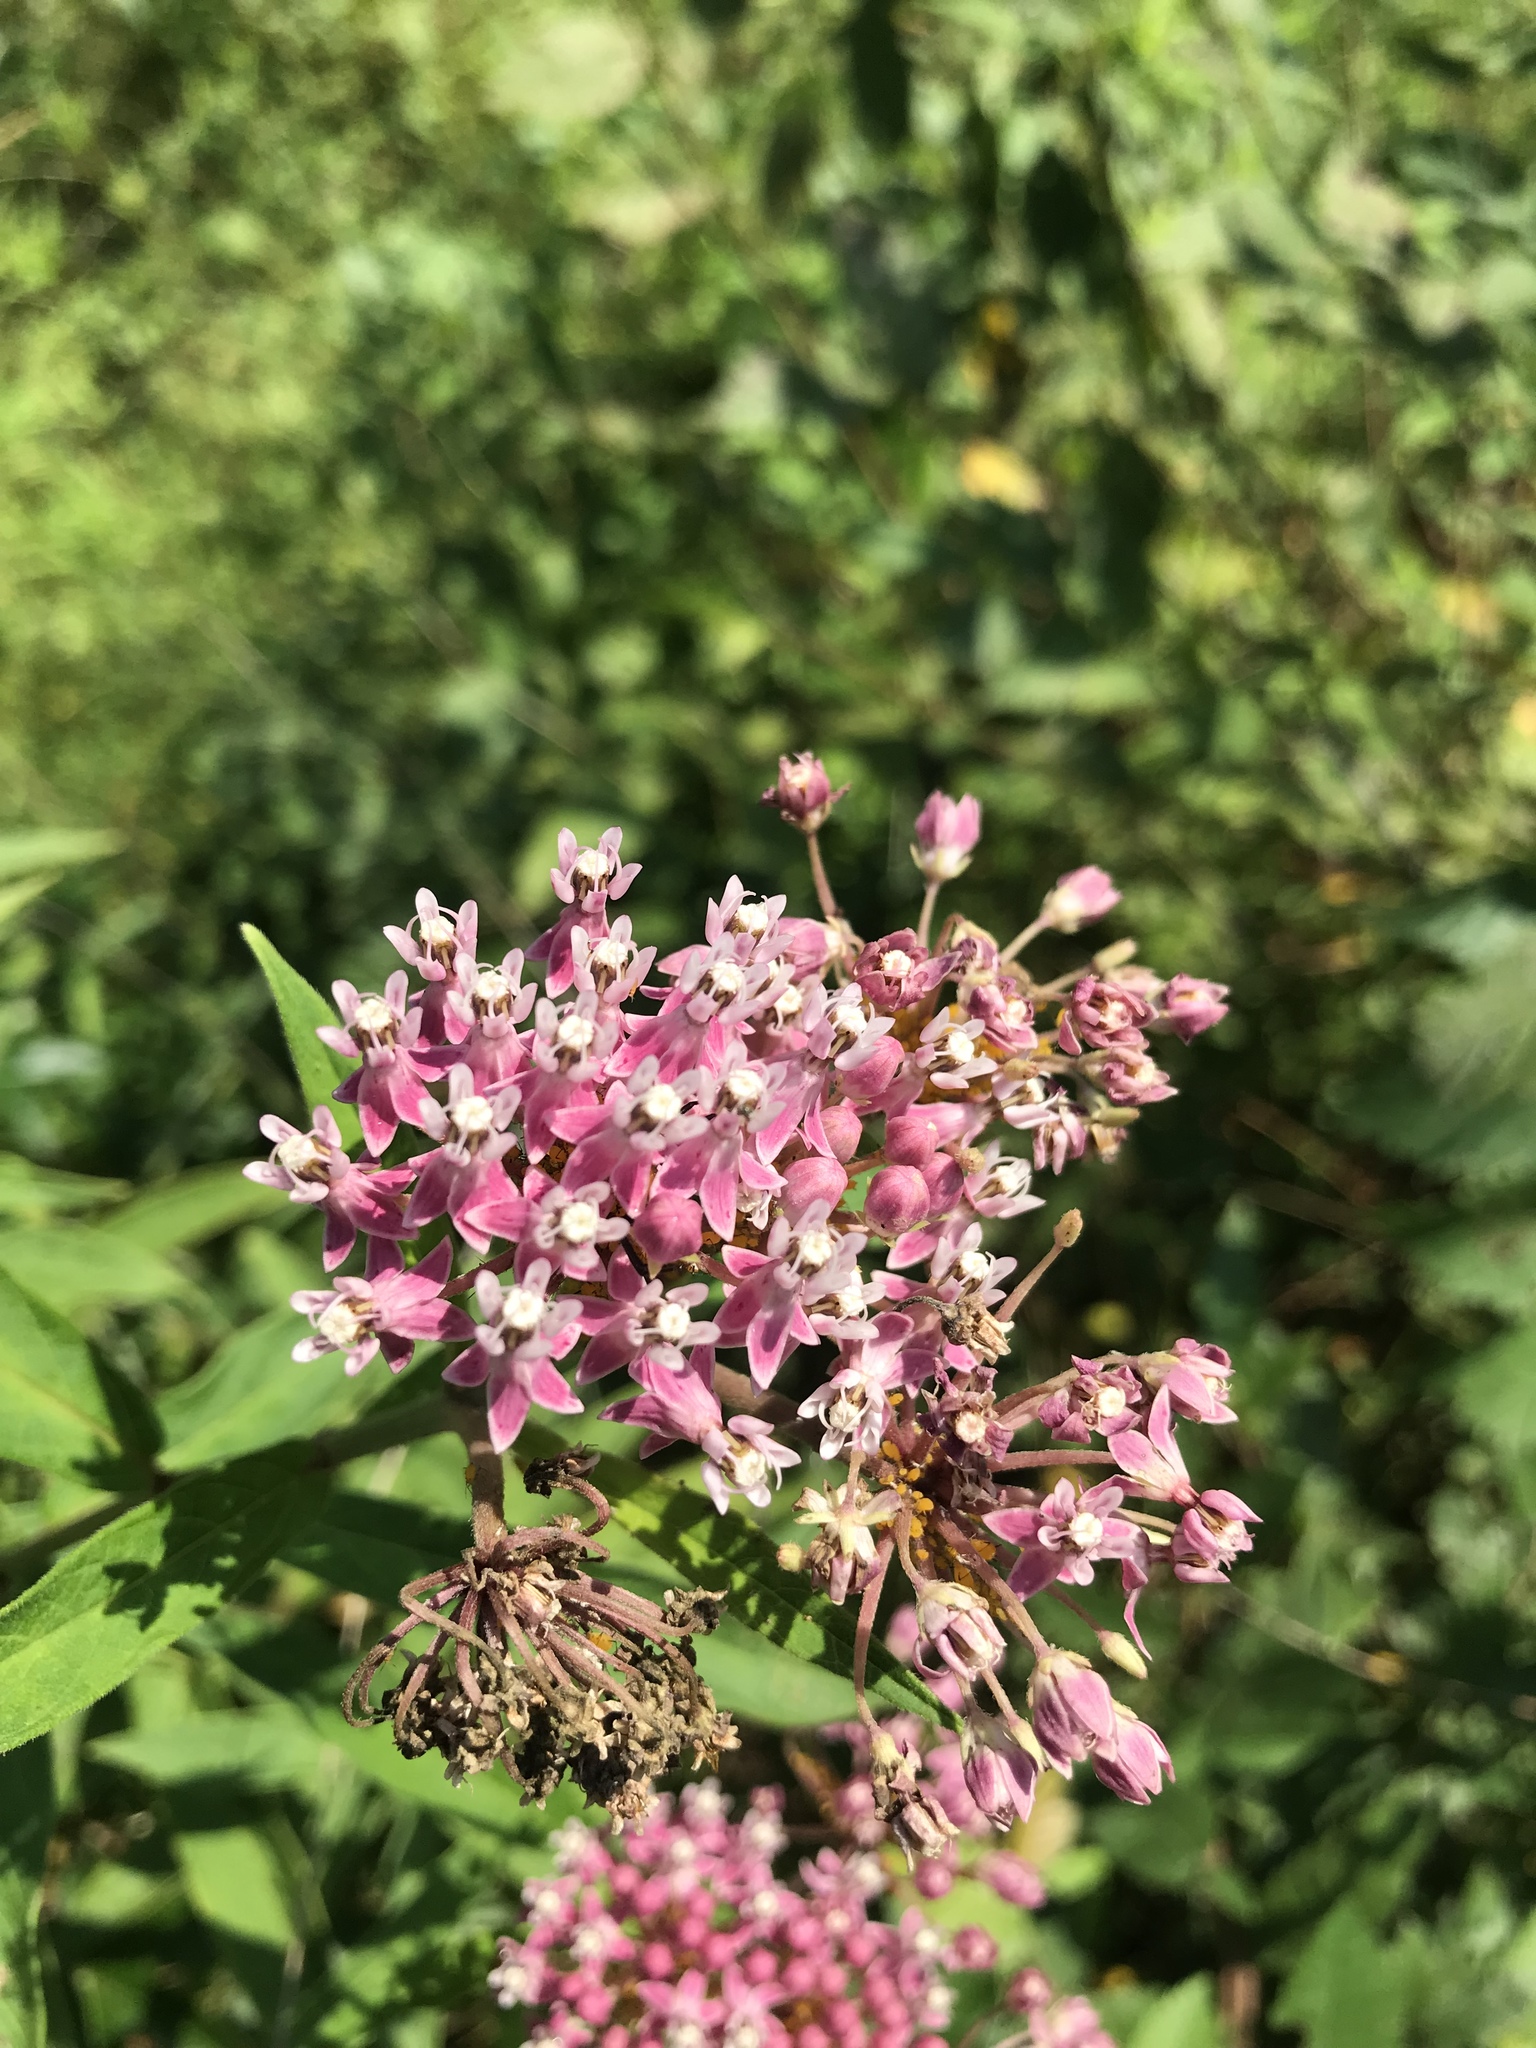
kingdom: Plantae
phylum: Tracheophyta
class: Magnoliopsida
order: Gentianales
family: Apocynaceae
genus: Asclepias
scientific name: Asclepias incarnata
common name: Swamp milkweed
